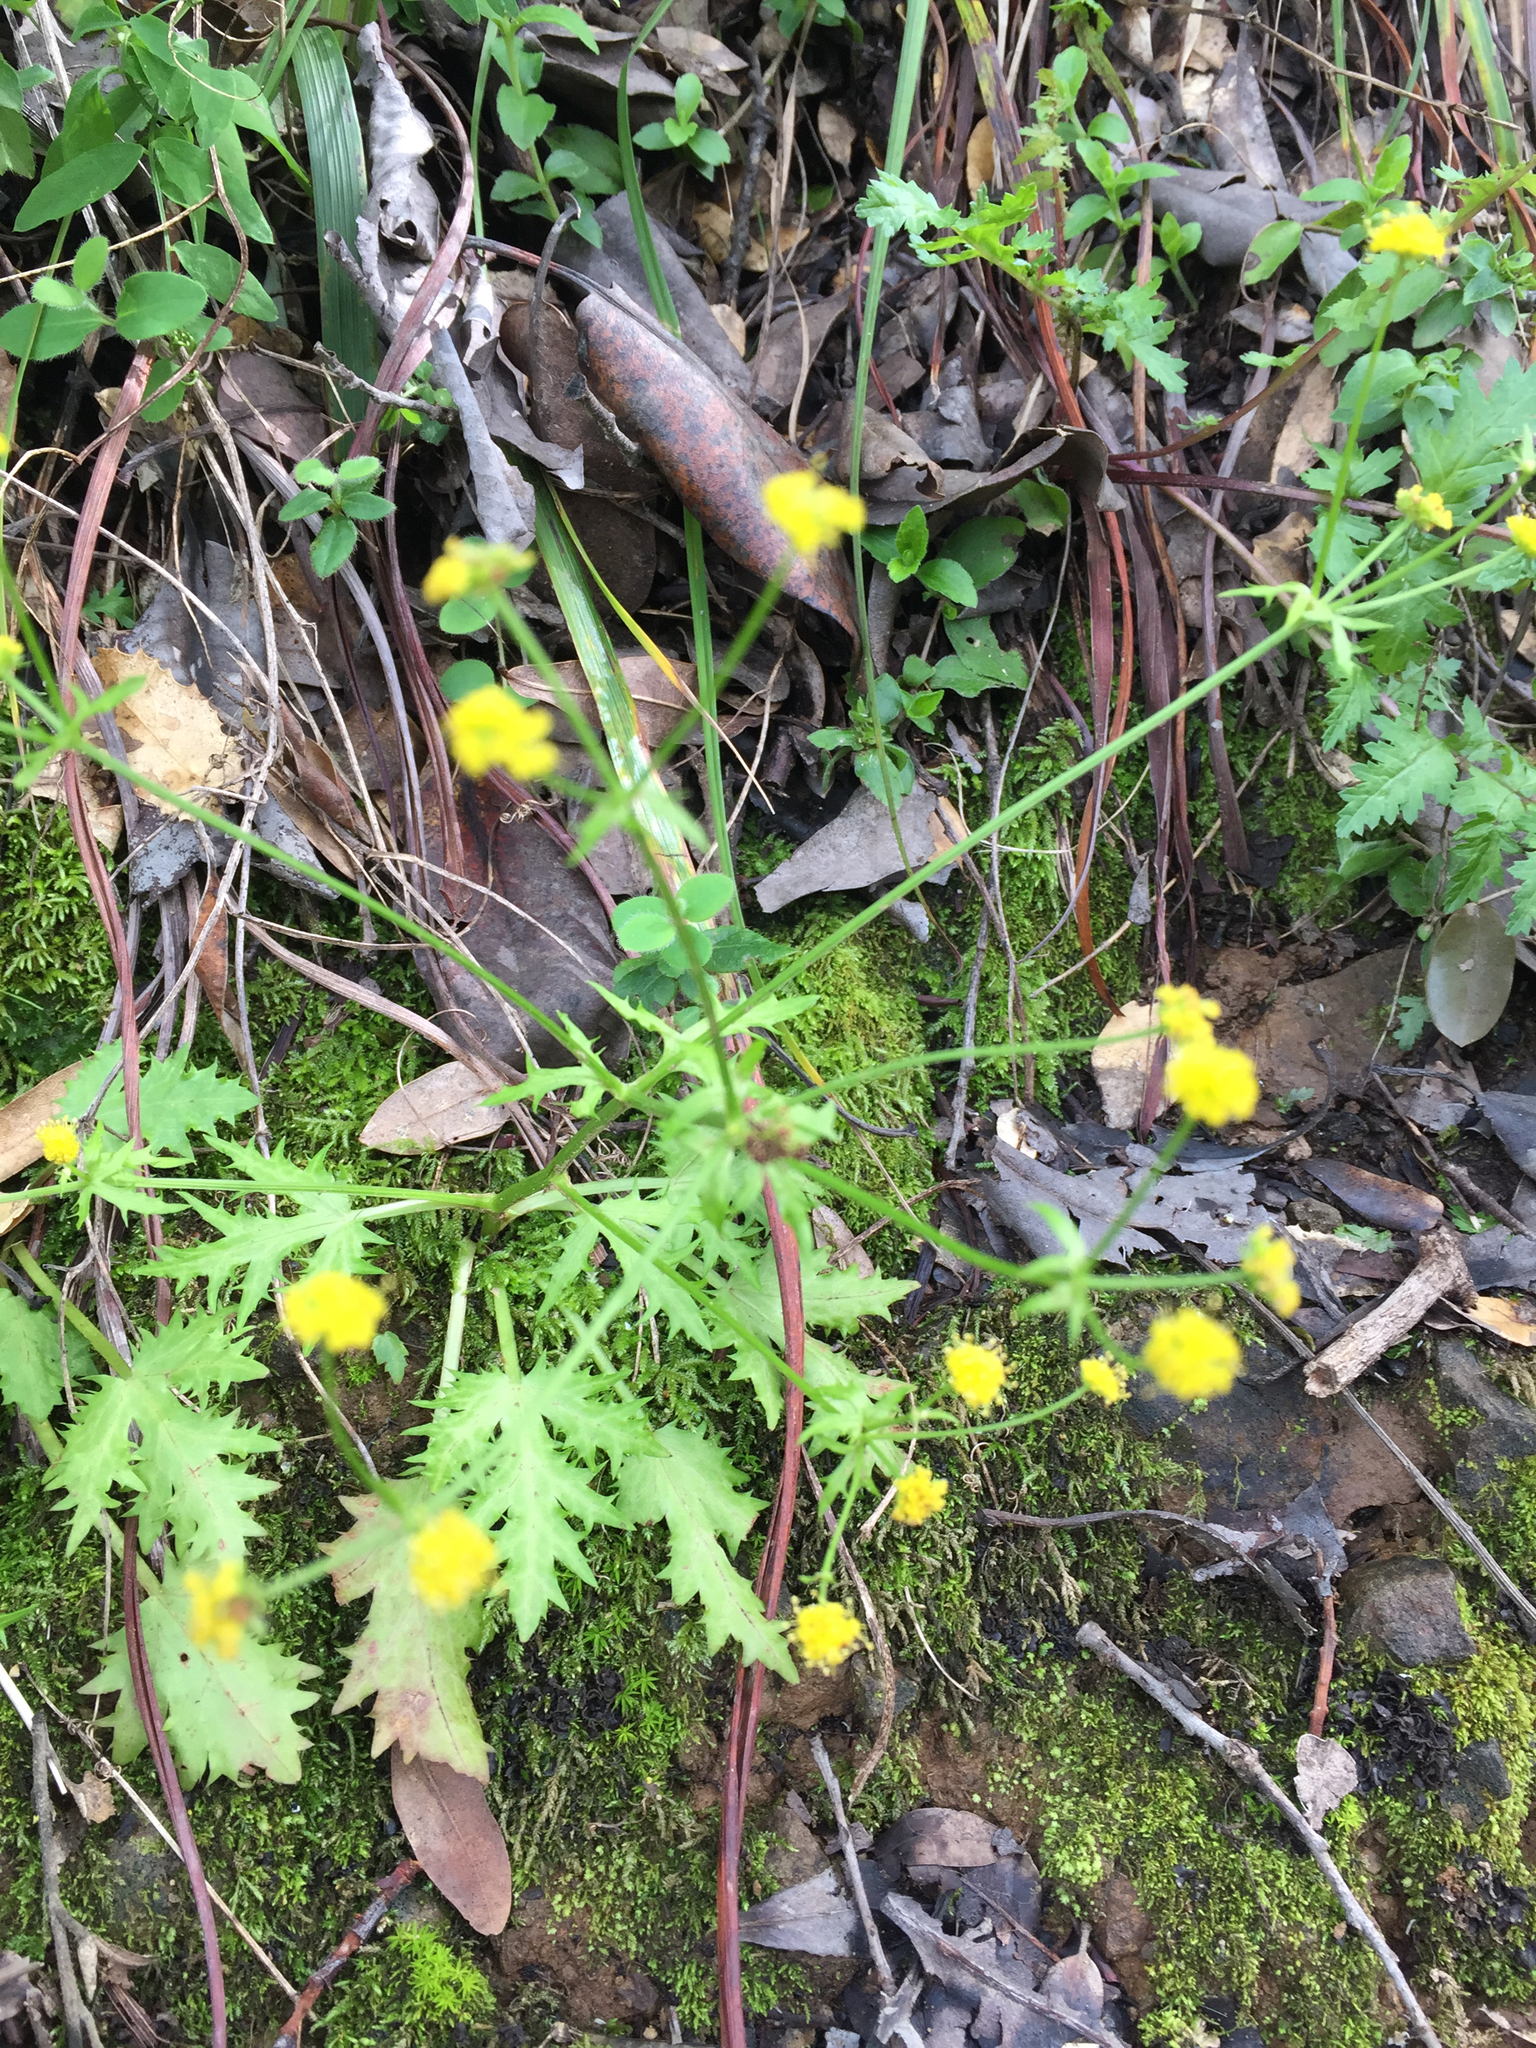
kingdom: Plantae
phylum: Tracheophyta
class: Magnoliopsida
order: Apiales
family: Apiaceae
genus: Sanicula
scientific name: Sanicula laciniata
